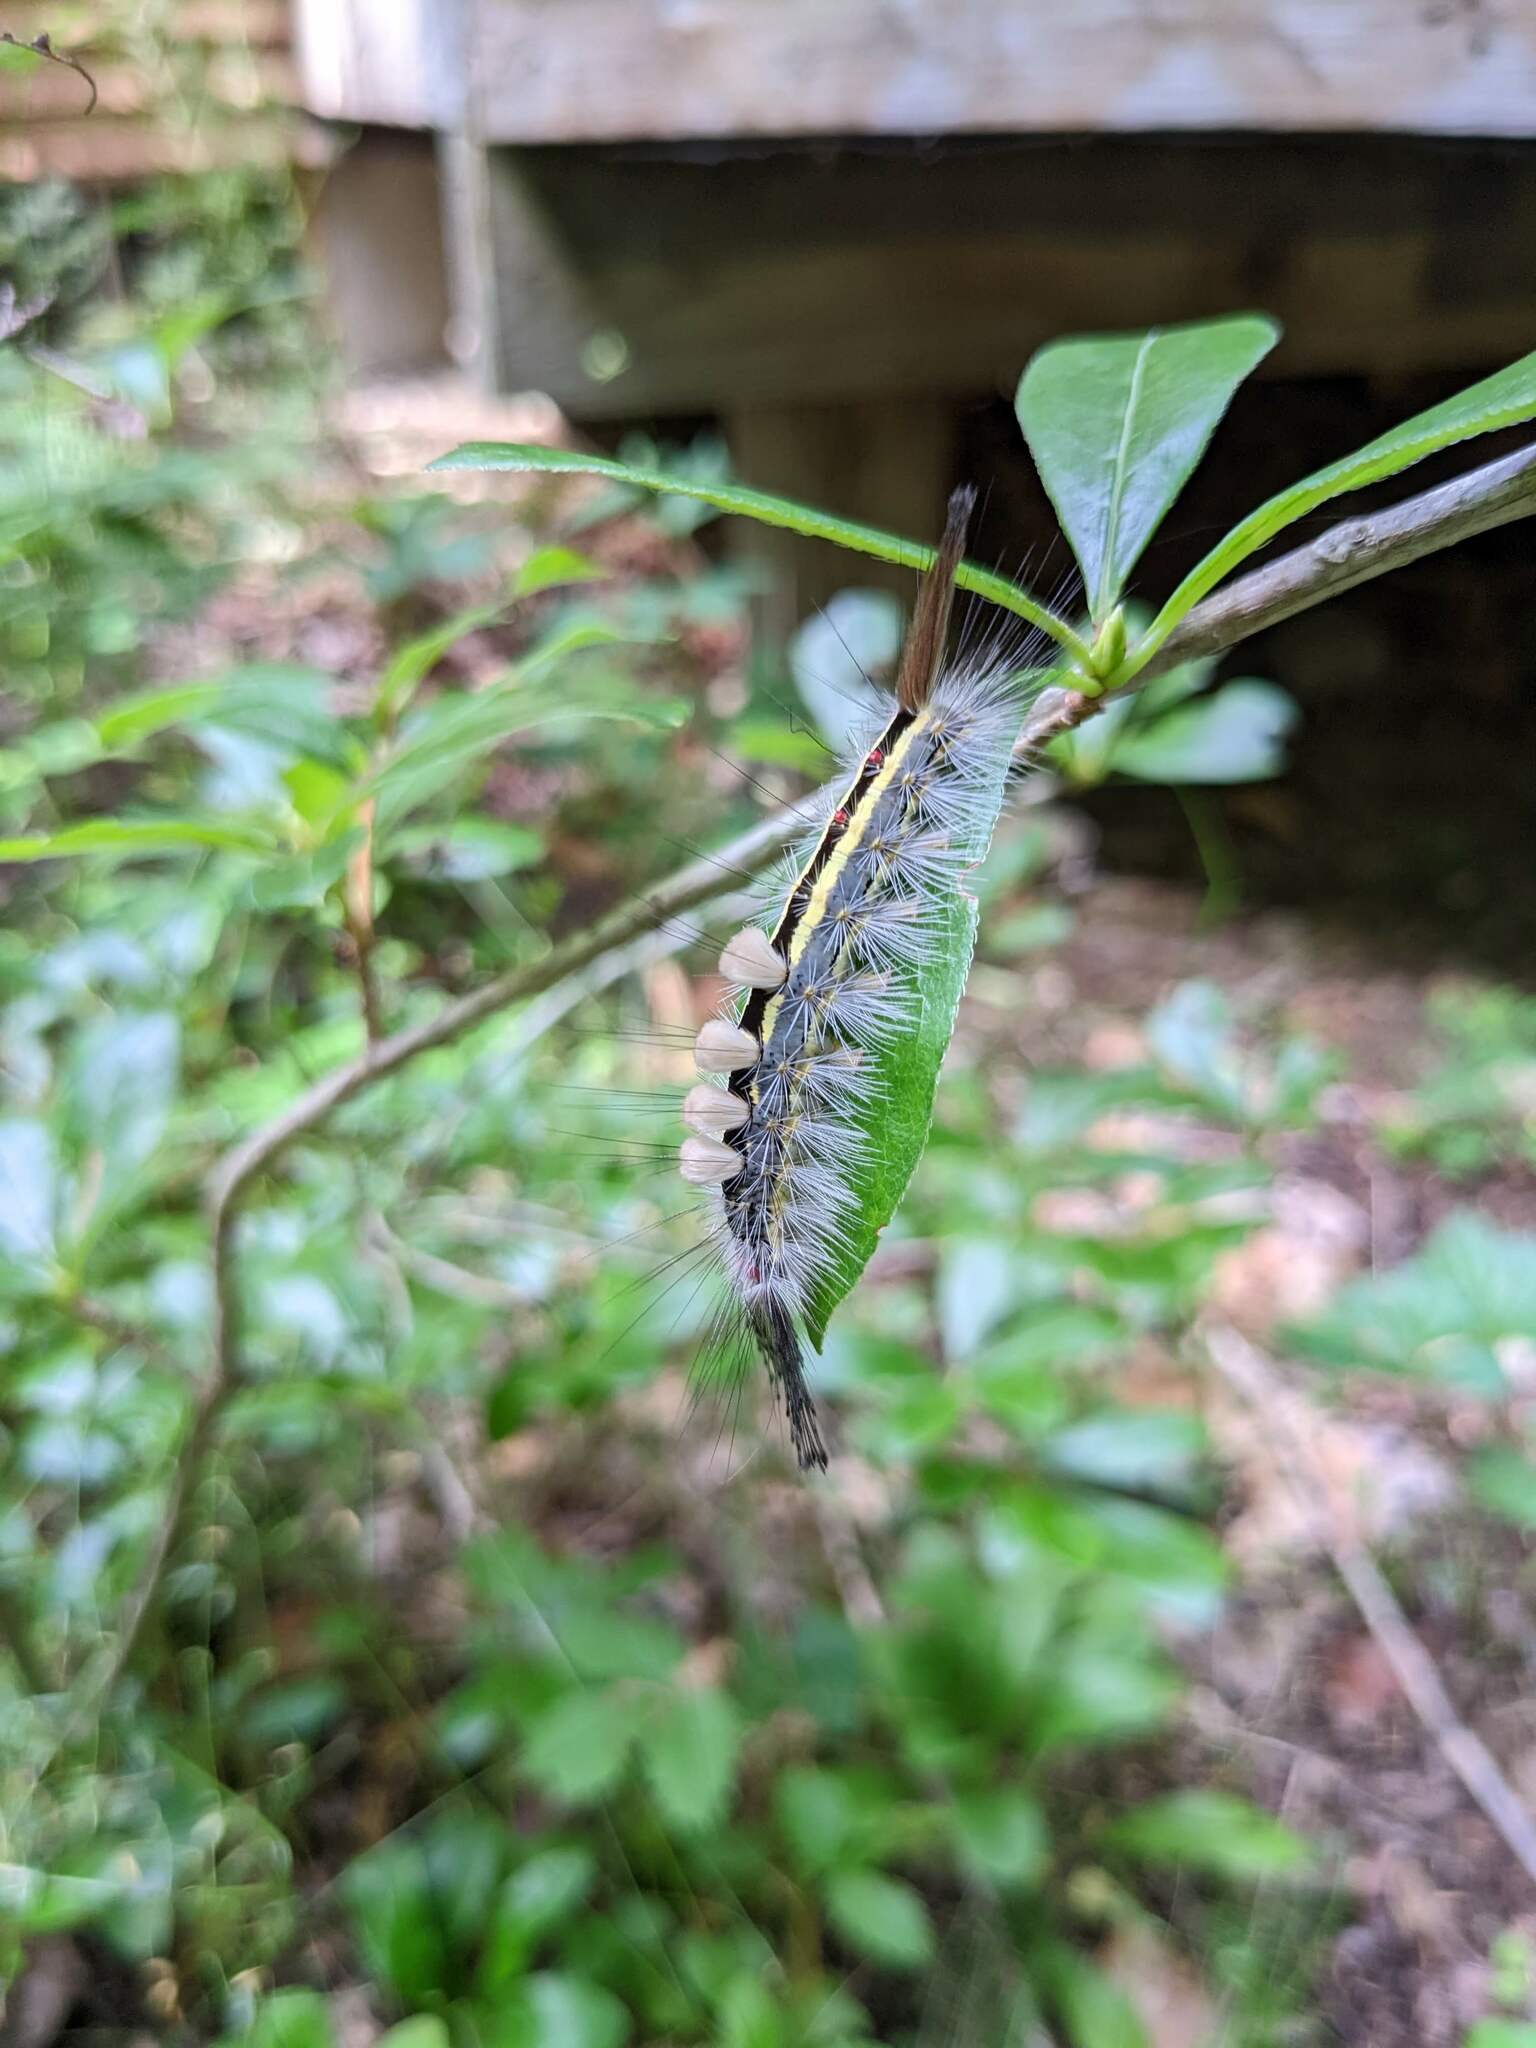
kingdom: Animalia
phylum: Arthropoda
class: Insecta
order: Lepidoptera
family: Erebidae
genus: Orgyia
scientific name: Orgyia leucostigma
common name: White-marked tussock moth
